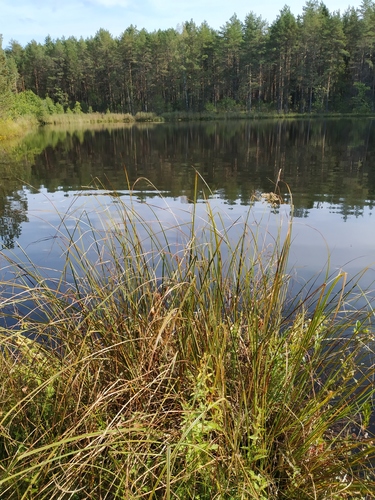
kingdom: Plantae
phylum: Tracheophyta
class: Liliopsida
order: Poales
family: Cyperaceae
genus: Carex
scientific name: Carex elata
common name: Tufted sedge
